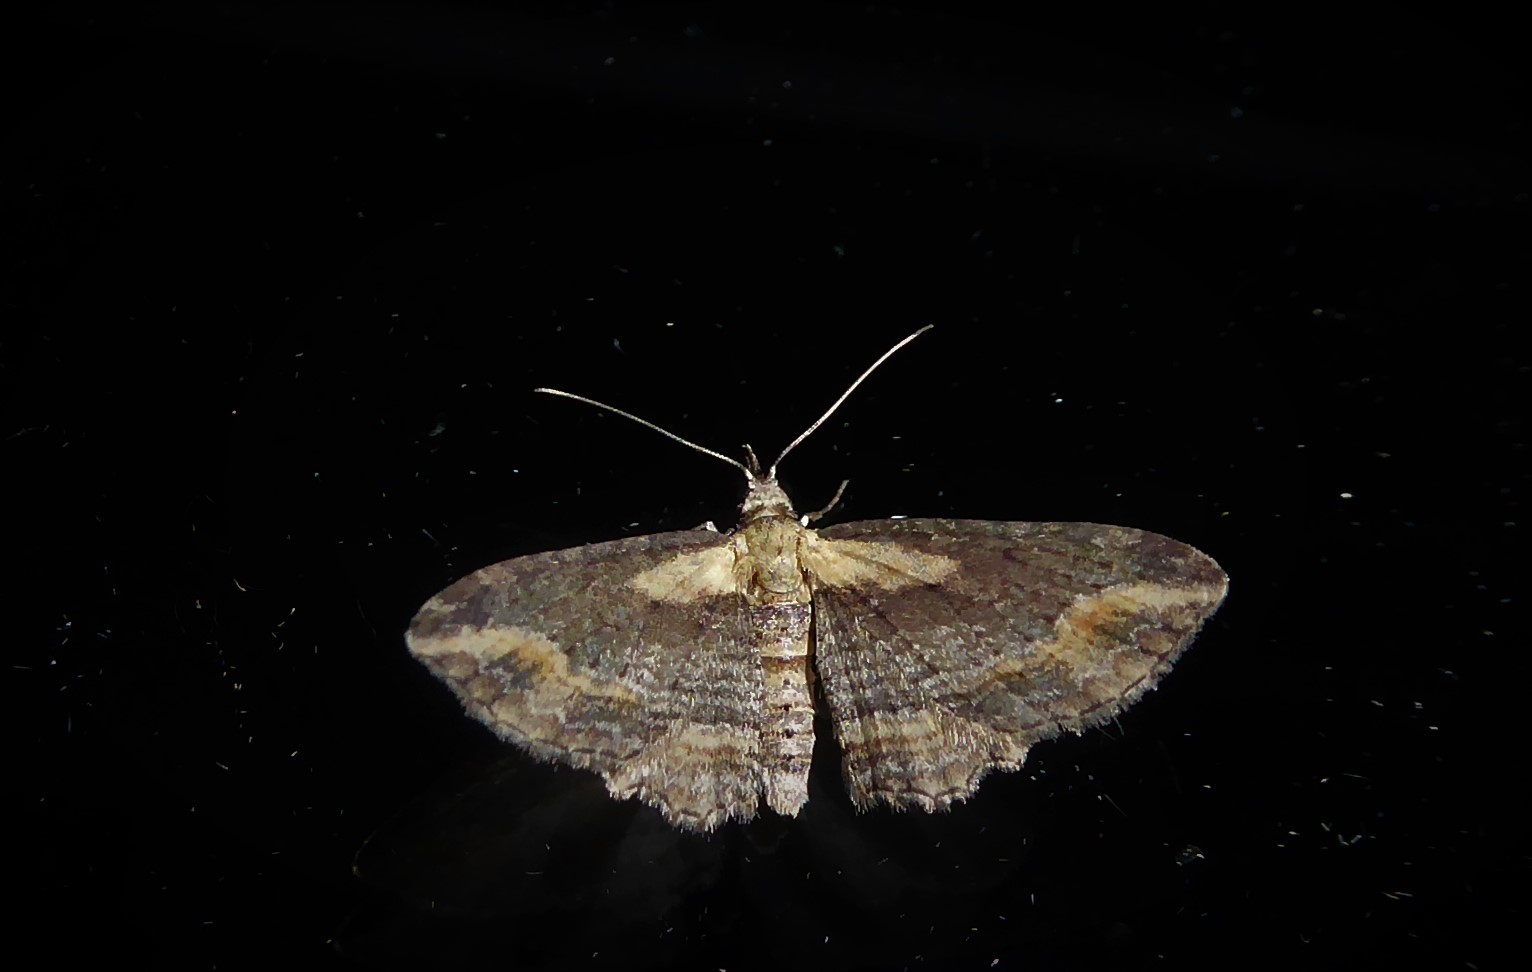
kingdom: Animalia
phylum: Arthropoda
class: Insecta
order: Lepidoptera
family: Geometridae
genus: Chloroclystis
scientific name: Chloroclystis filata
